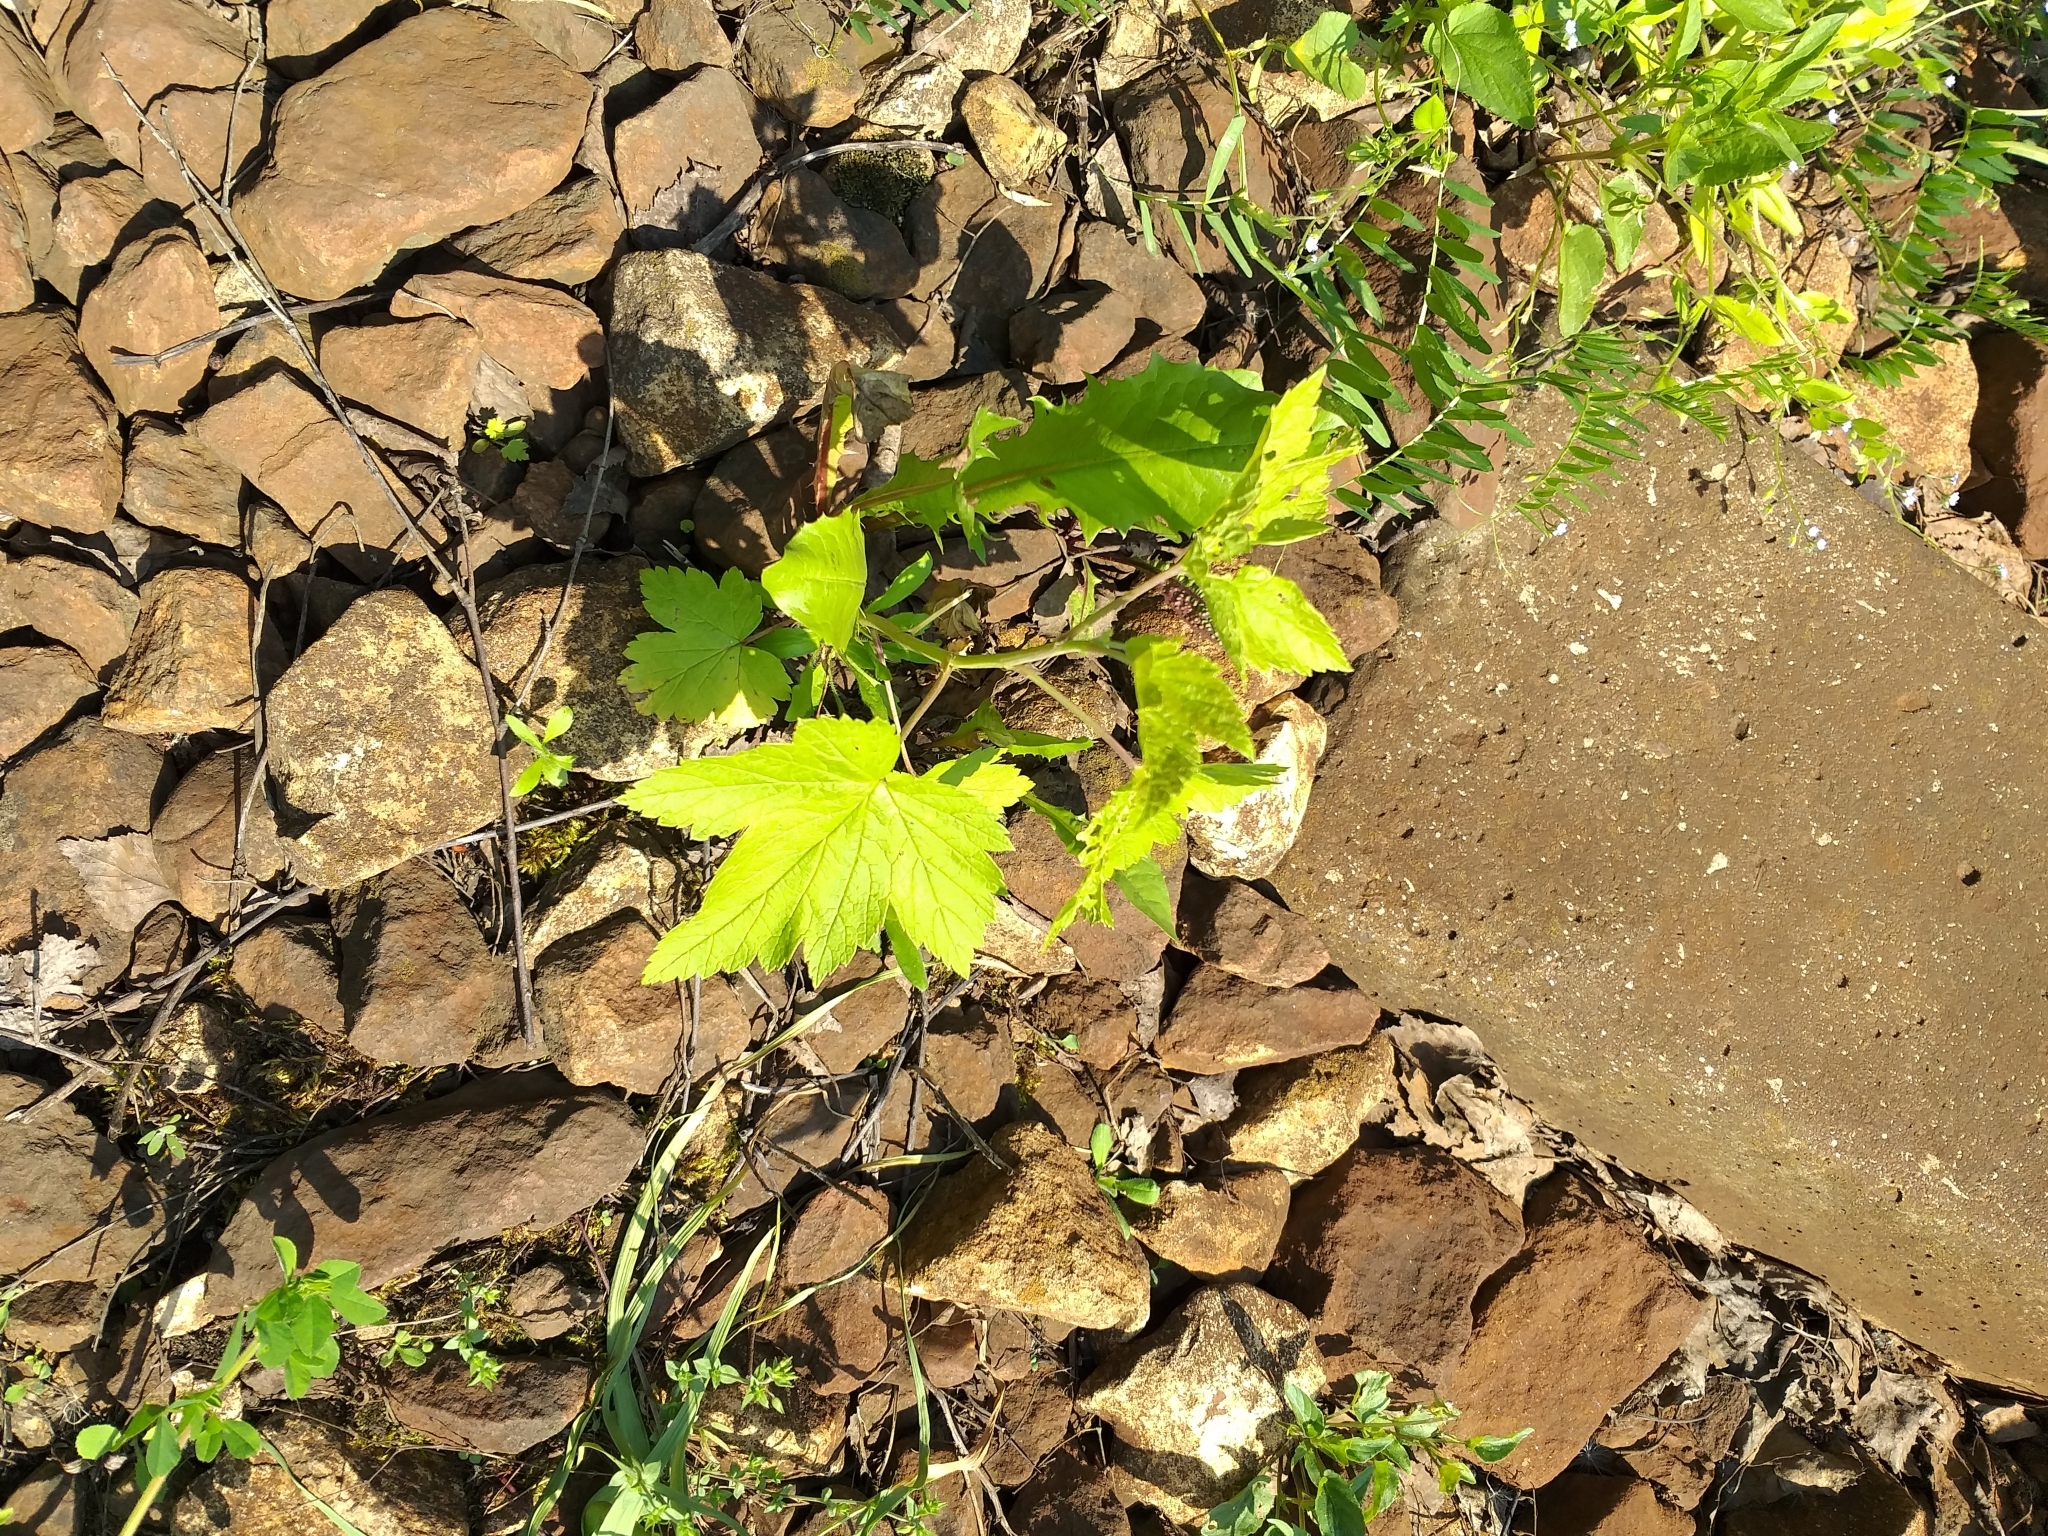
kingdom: Plantae
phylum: Tracheophyta
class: Magnoliopsida
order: Saxifragales
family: Grossulariaceae
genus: Ribes
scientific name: Ribes nigrum
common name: Black currant
